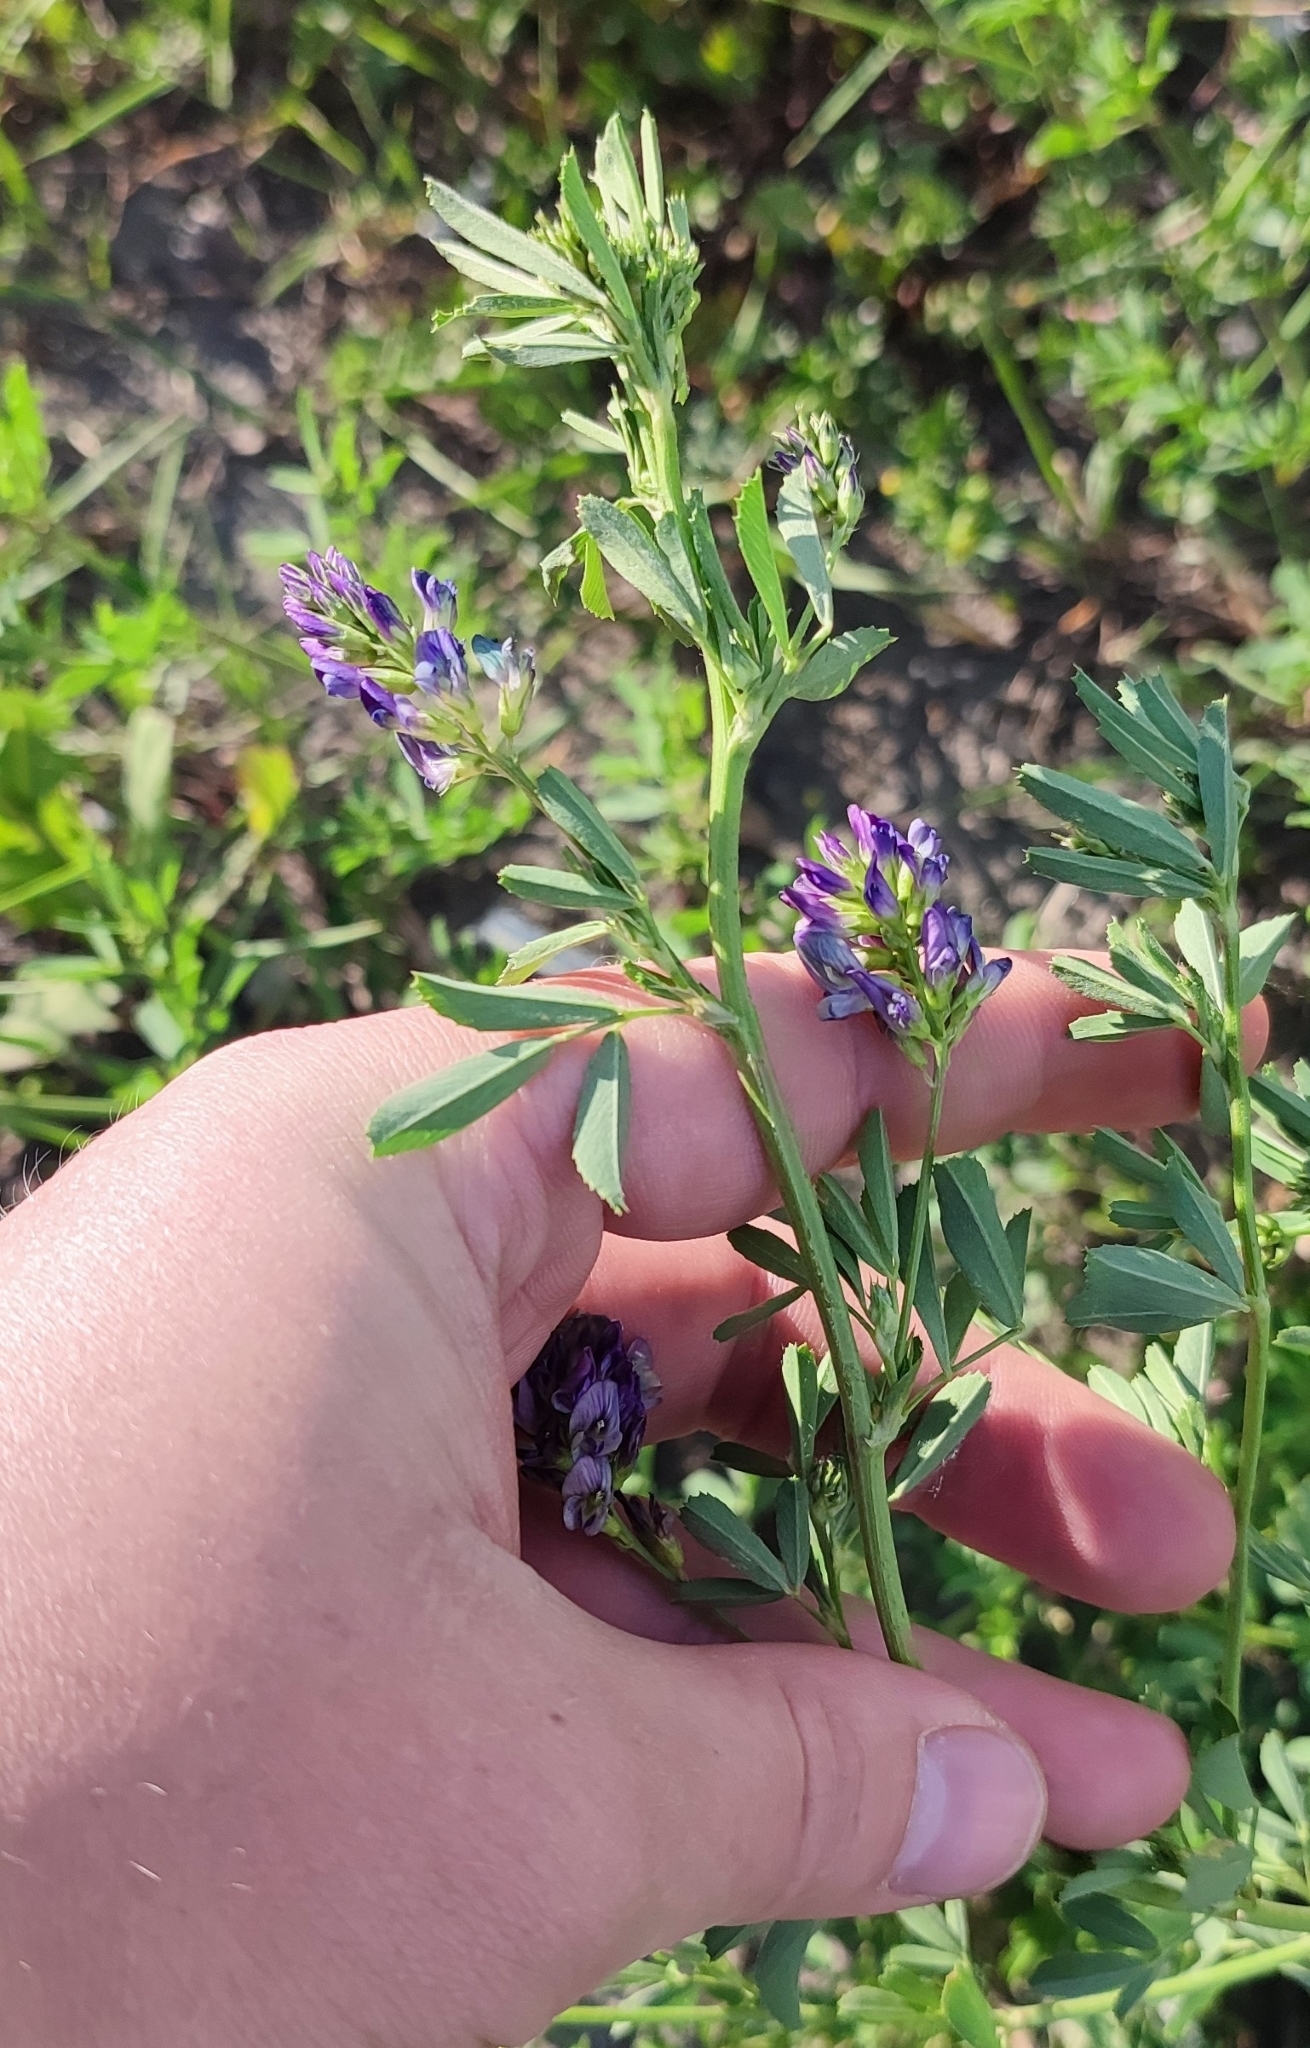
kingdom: Plantae
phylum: Tracheophyta
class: Magnoliopsida
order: Fabales
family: Fabaceae
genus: Medicago
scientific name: Medicago varia
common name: Sand lucerne
